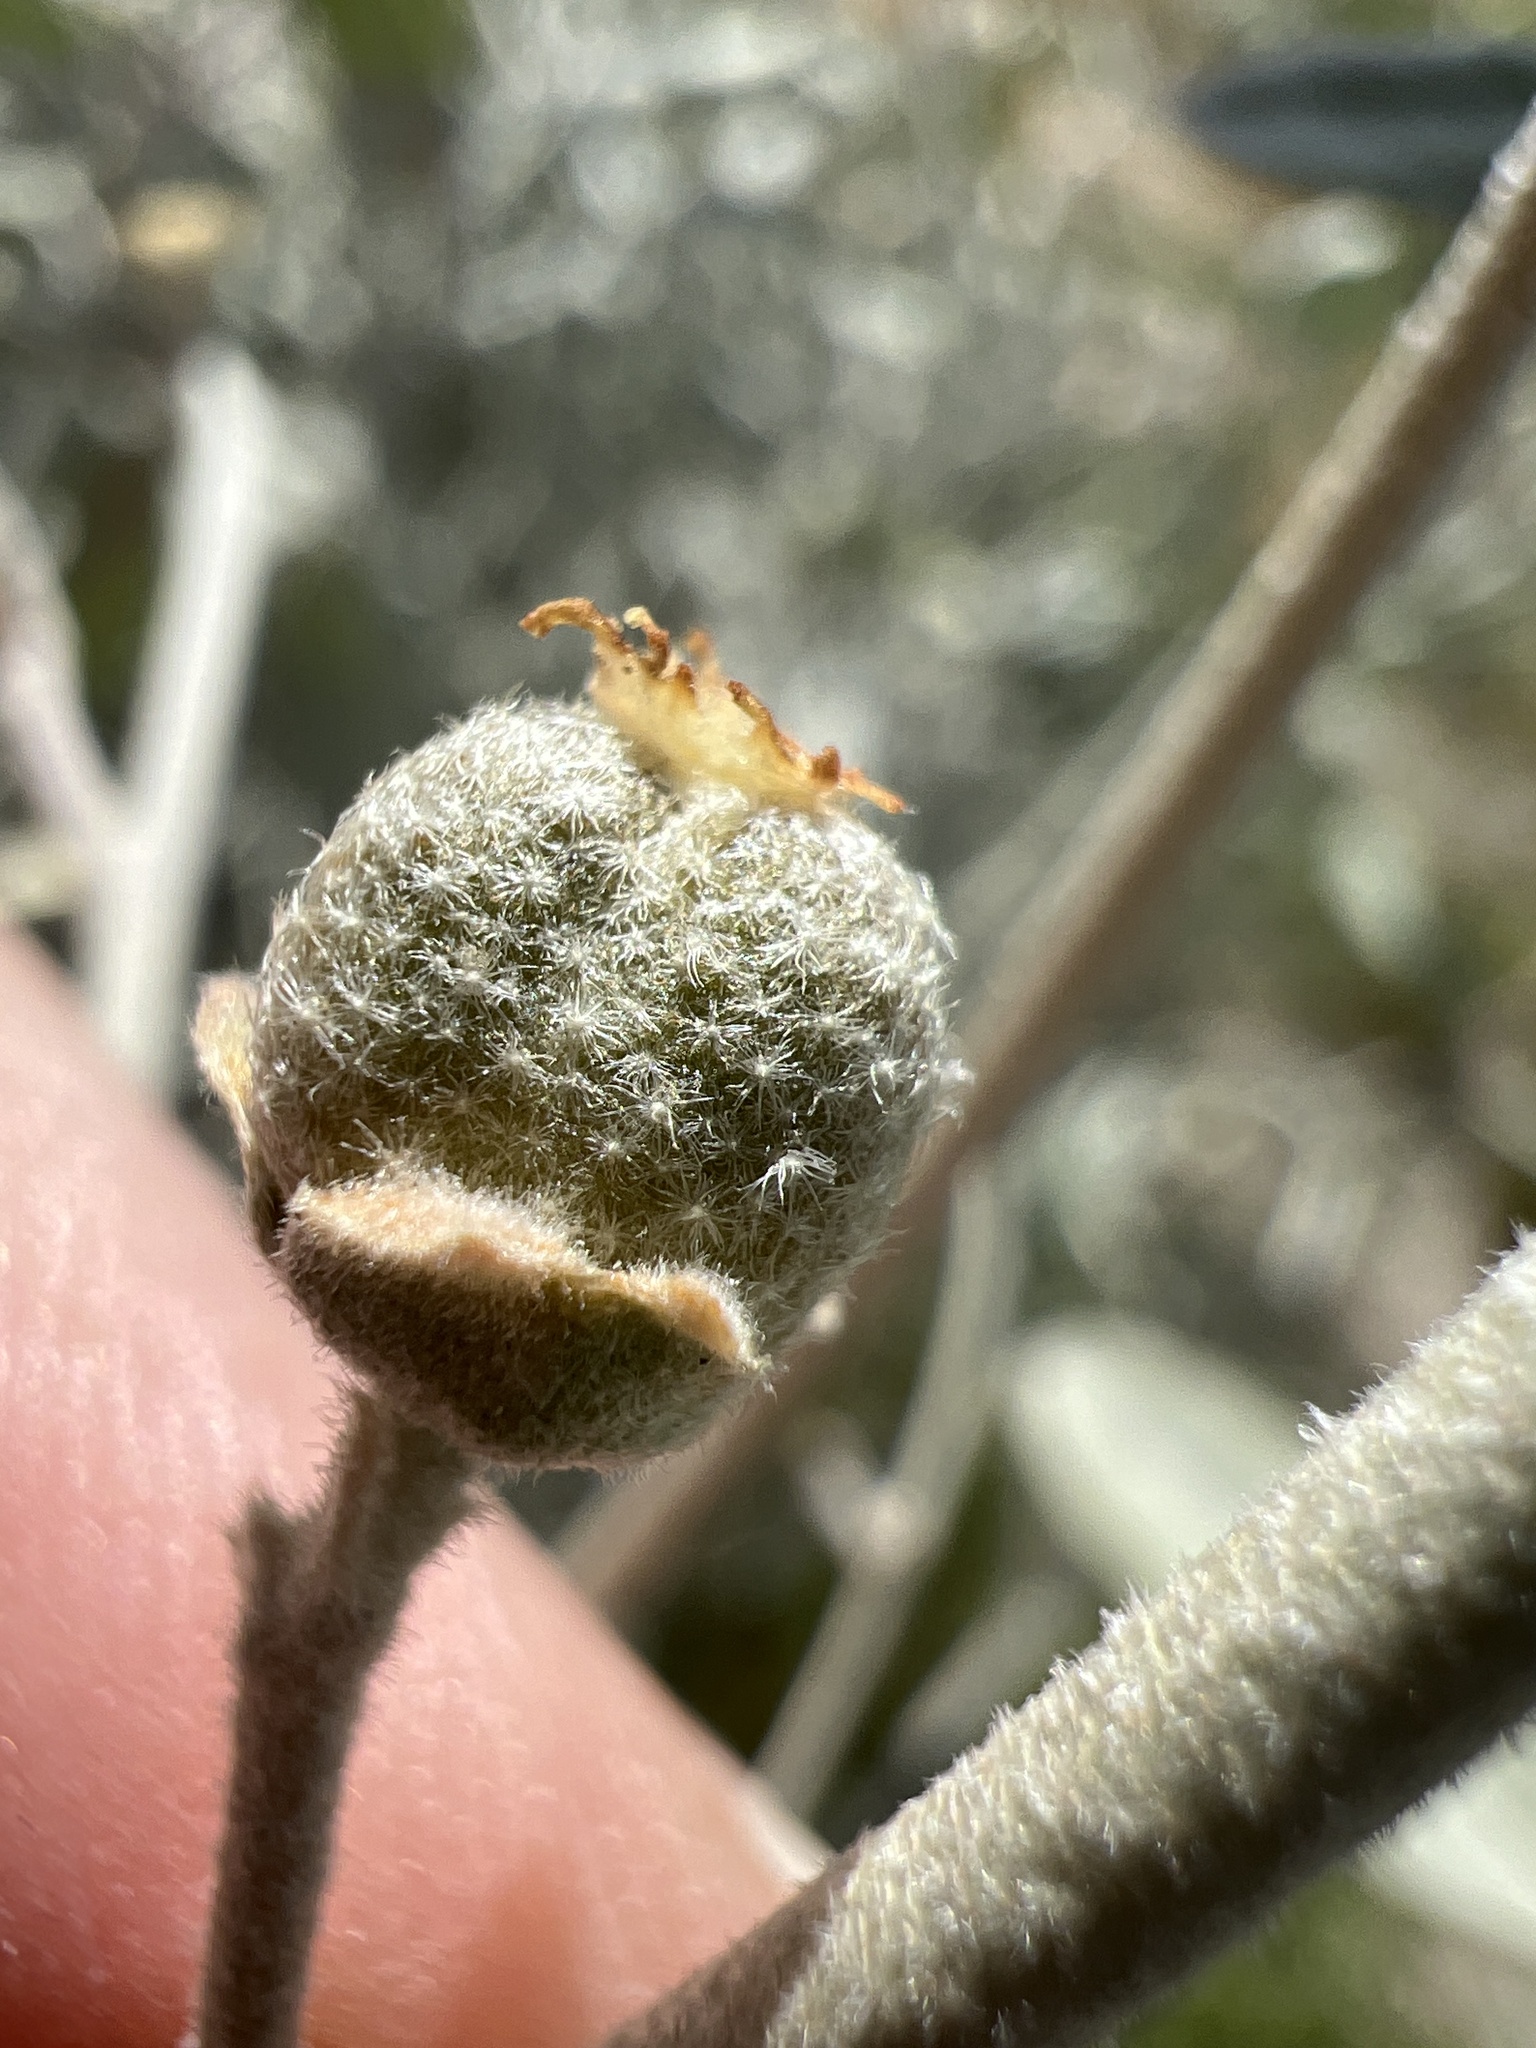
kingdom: Plantae
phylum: Tracheophyta
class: Magnoliopsida
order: Malpighiales
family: Euphorbiaceae
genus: Croton
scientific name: Croton californicus
